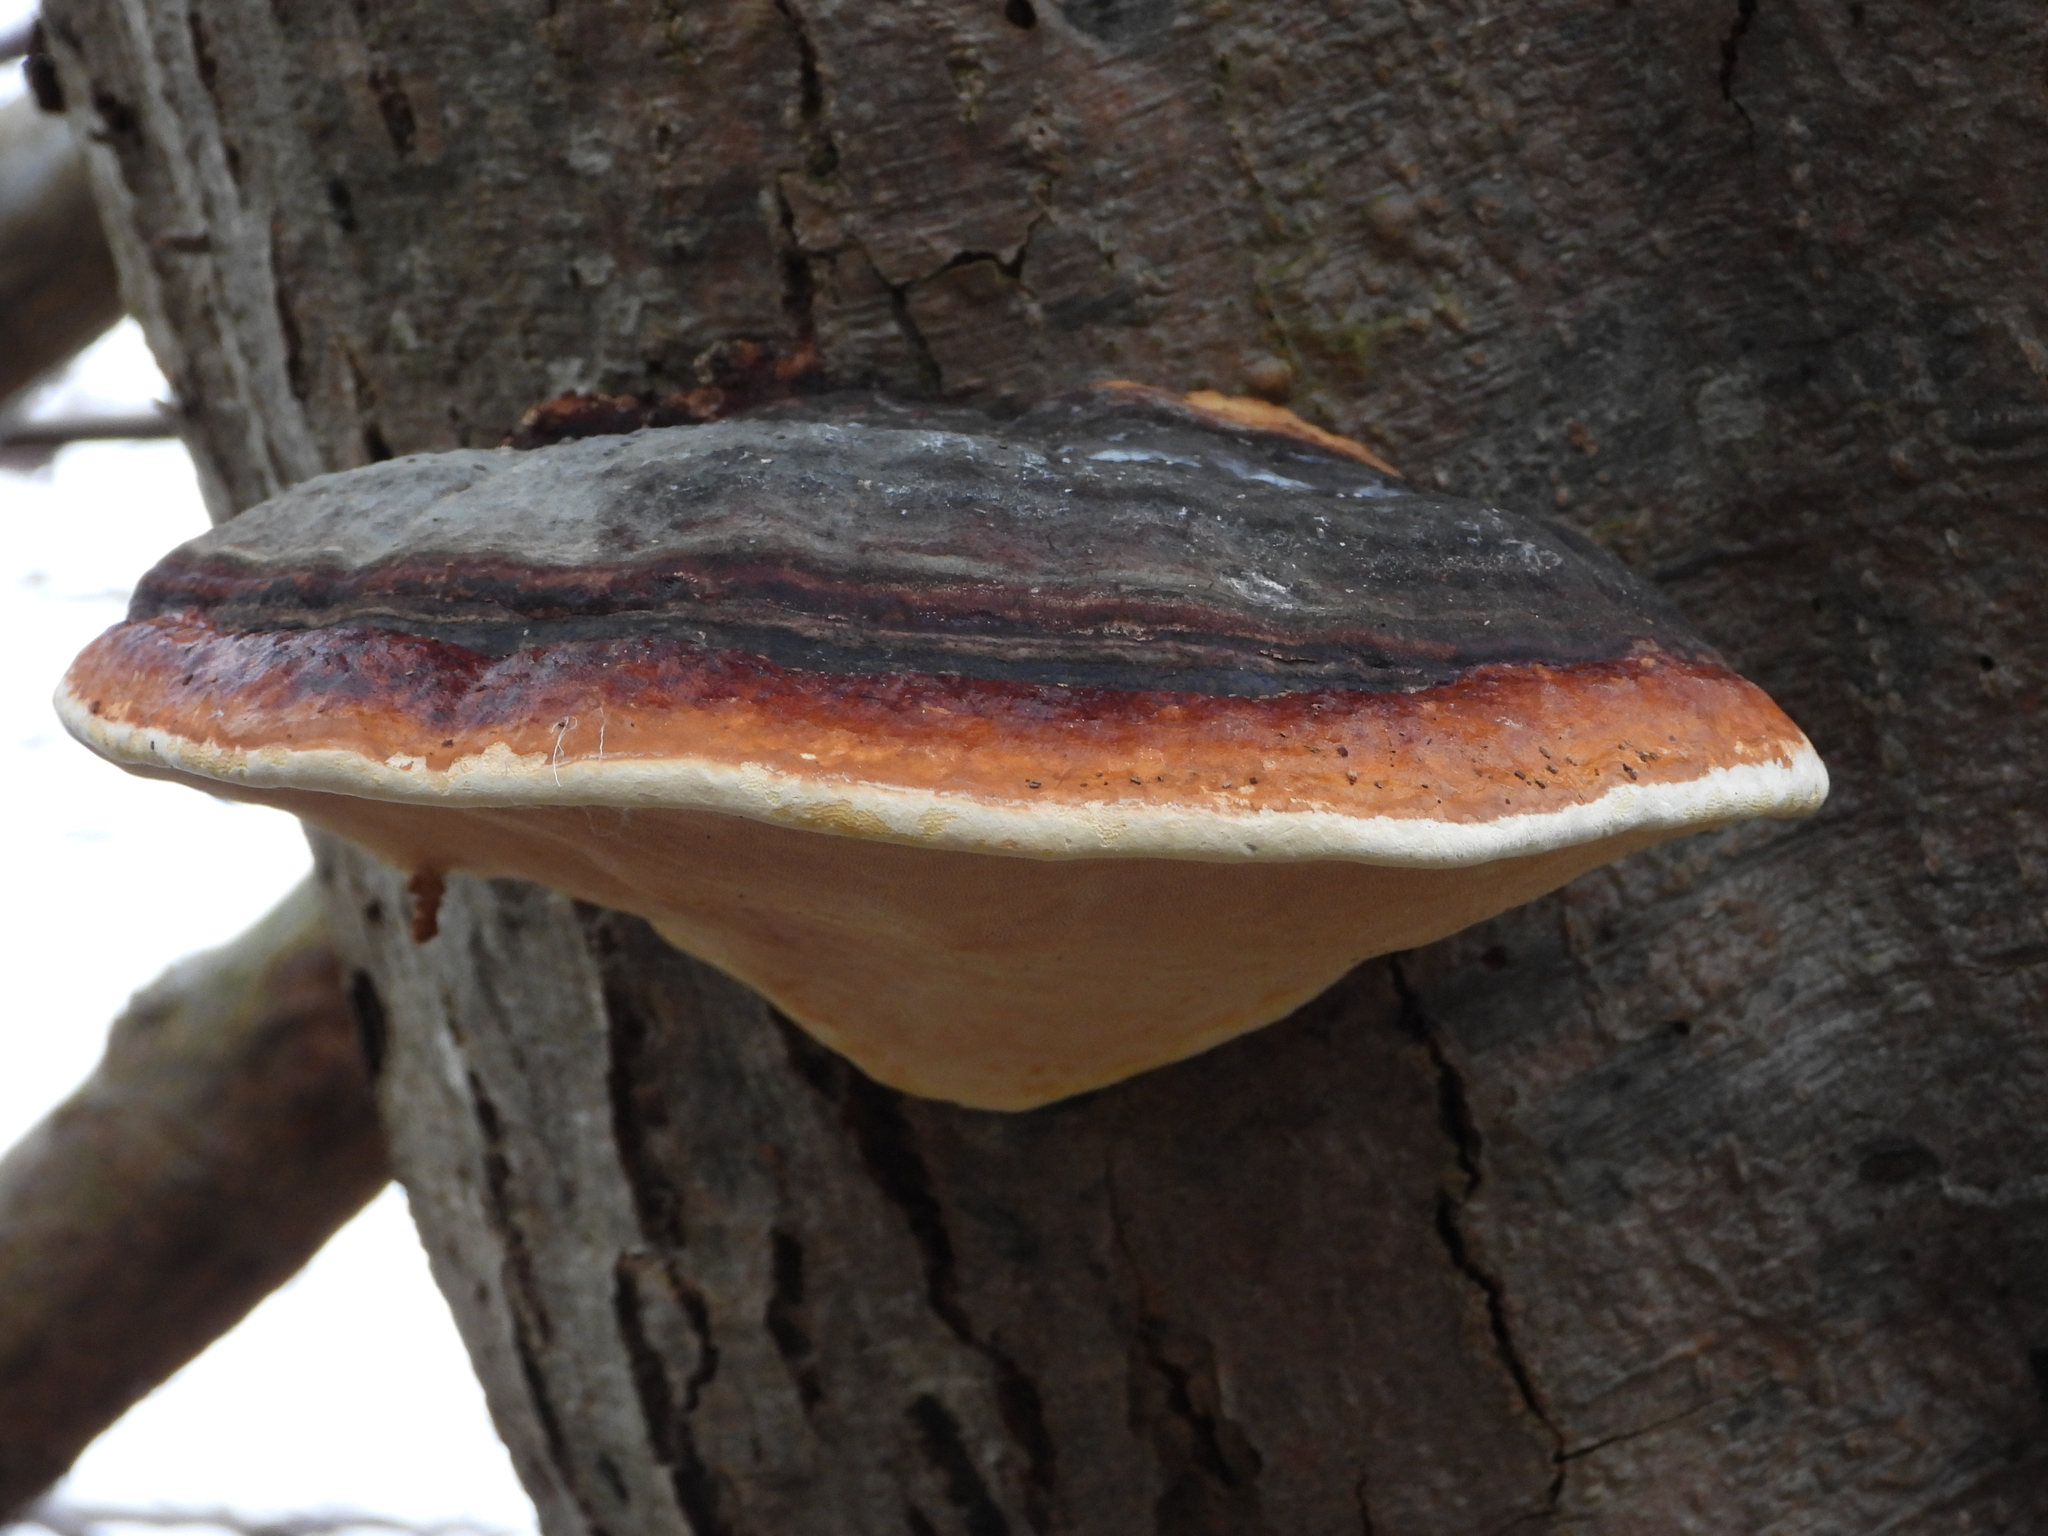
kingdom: Fungi
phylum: Basidiomycota
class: Agaricomycetes
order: Polyporales
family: Fomitopsidaceae
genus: Fomitopsis
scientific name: Fomitopsis pinicola
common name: Red-belted bracket
